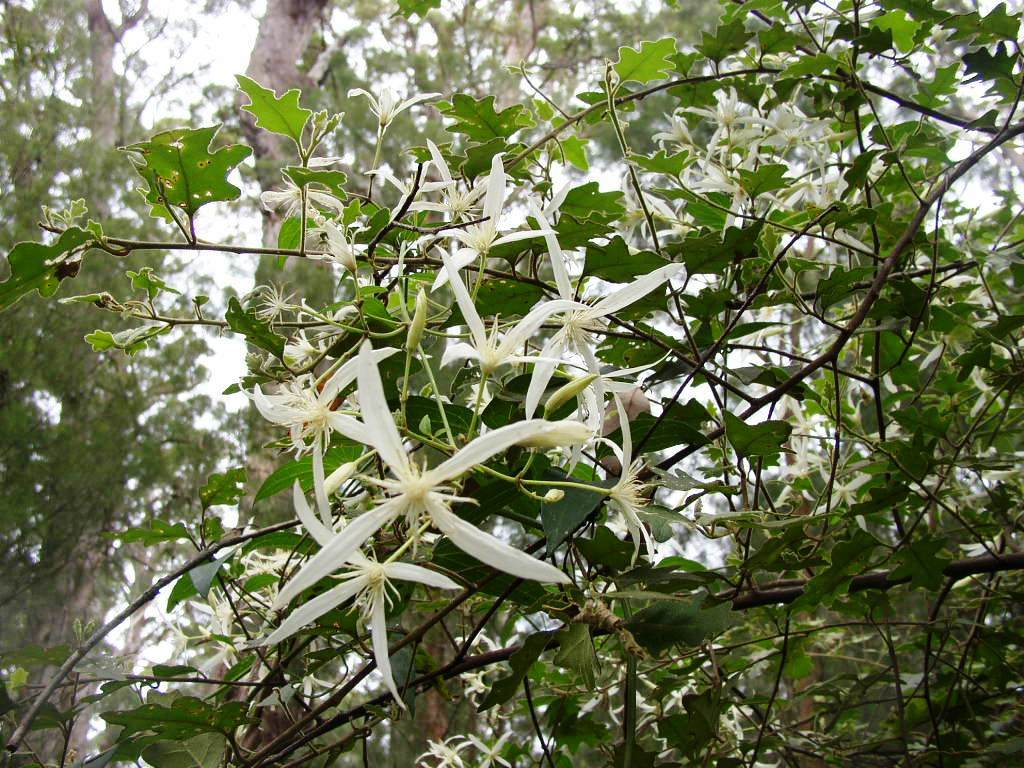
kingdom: Plantae
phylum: Tracheophyta
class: Magnoliopsida
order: Ranunculales
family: Ranunculaceae
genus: Clematis
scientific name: Clematis pubescens
